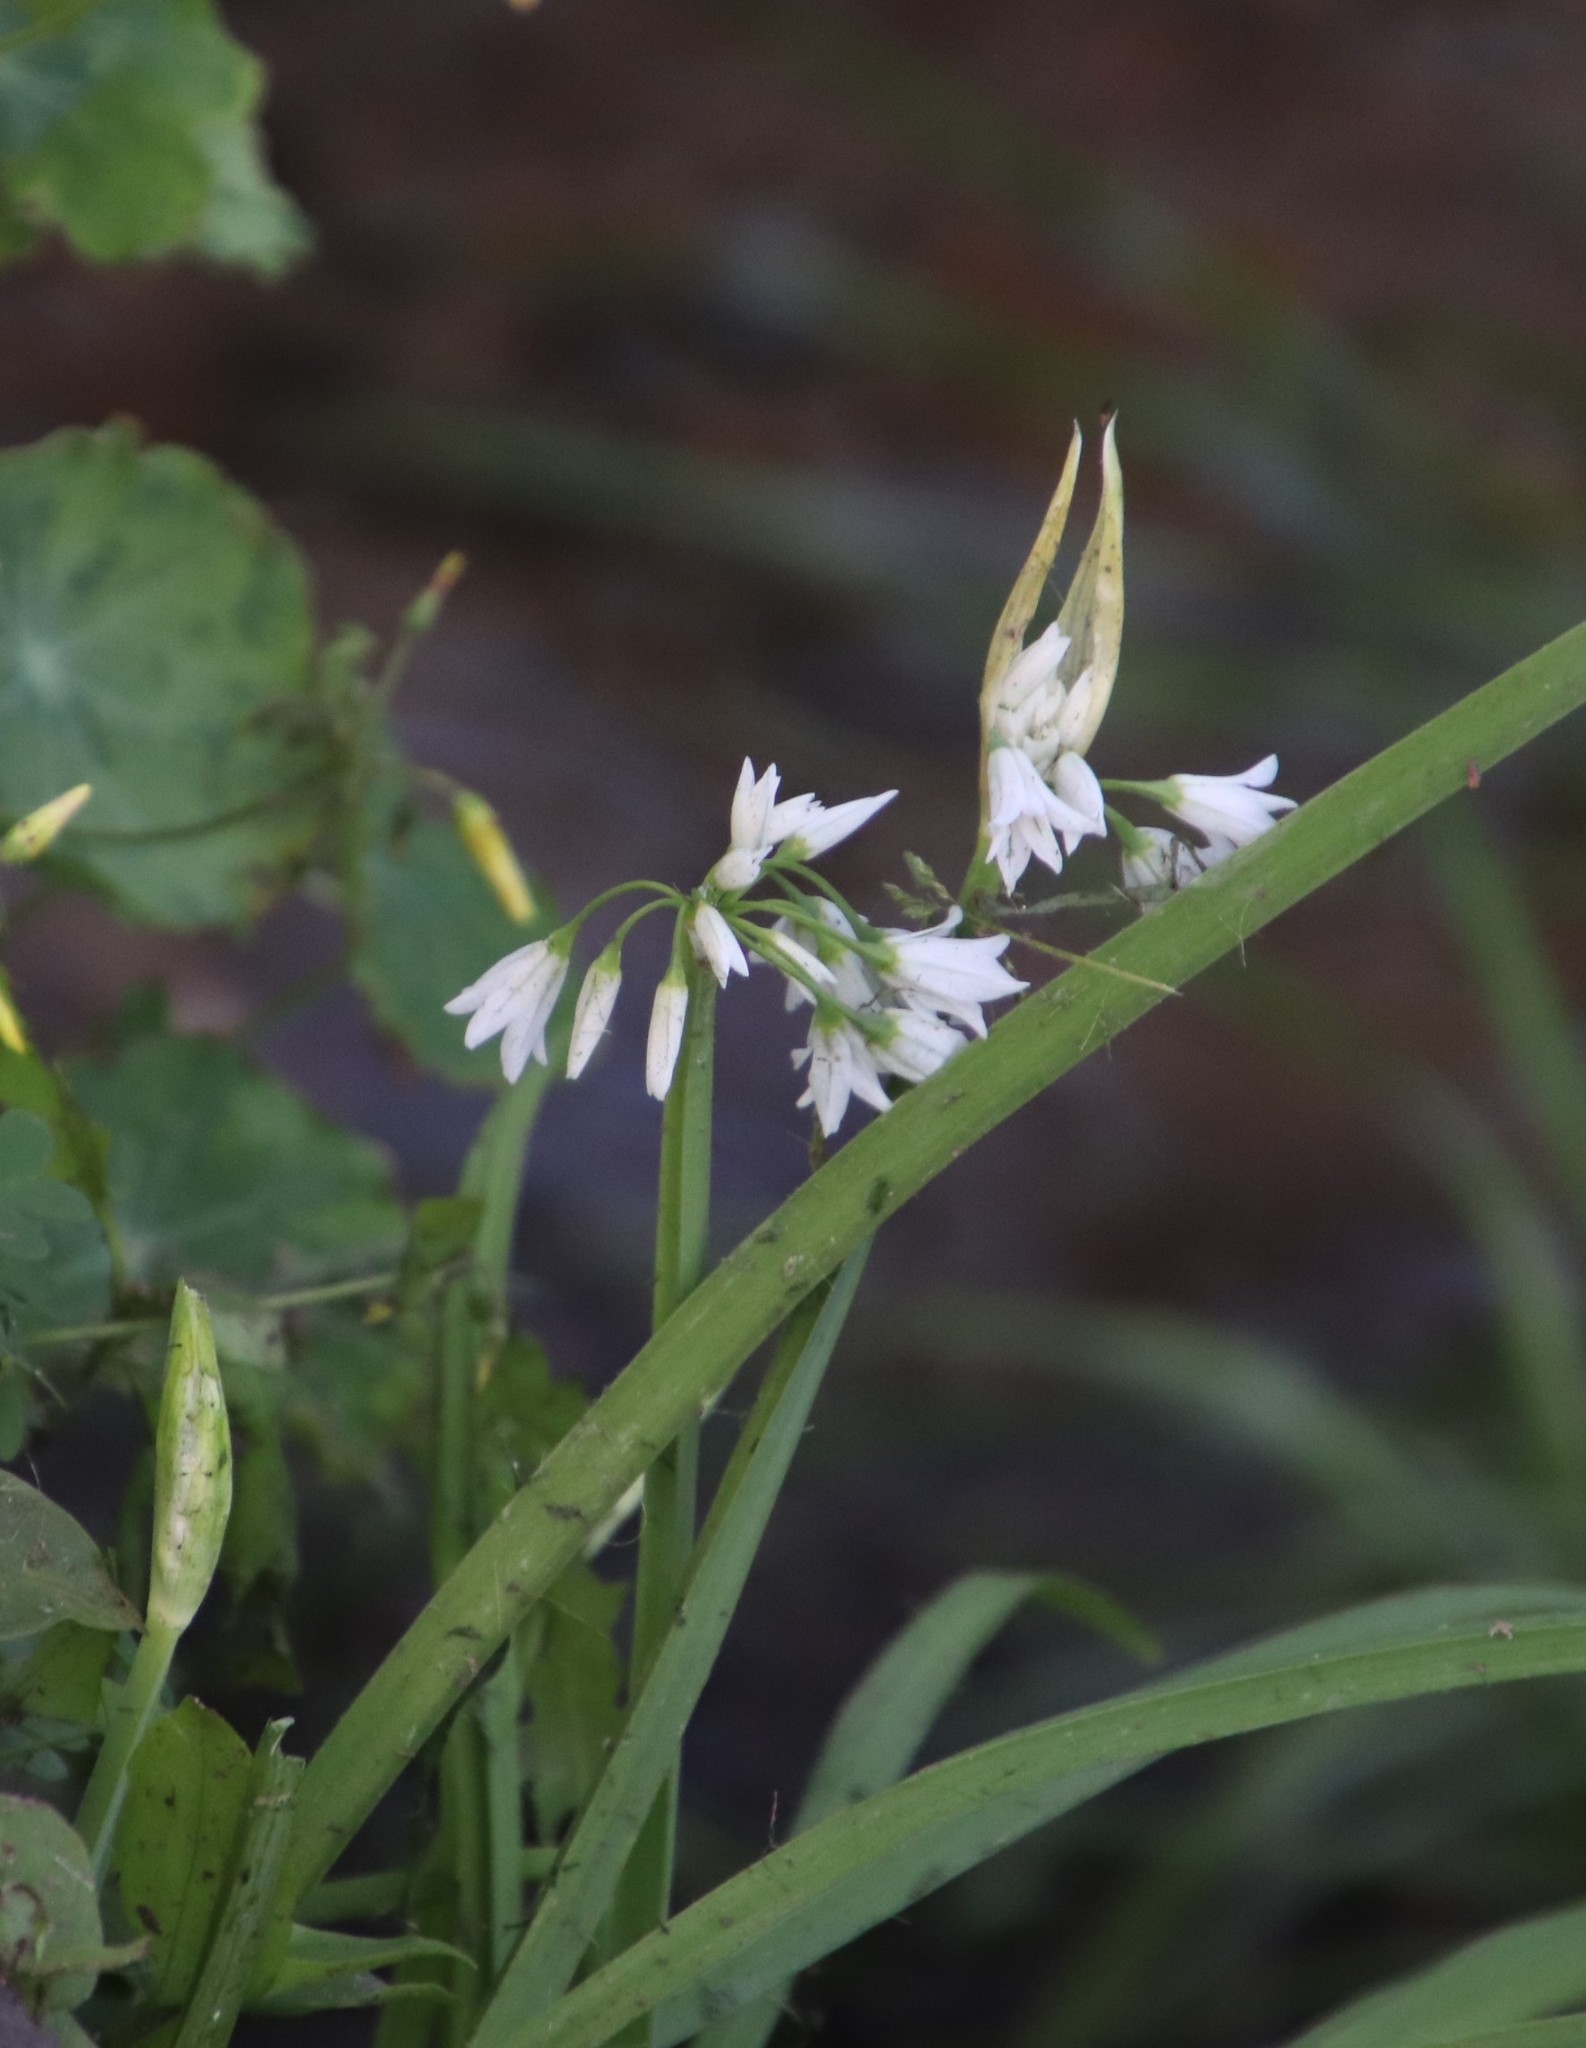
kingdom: Plantae
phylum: Tracheophyta
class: Liliopsida
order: Asparagales
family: Amaryllidaceae
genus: Allium
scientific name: Allium triquetrum
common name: Three-cornered garlic
